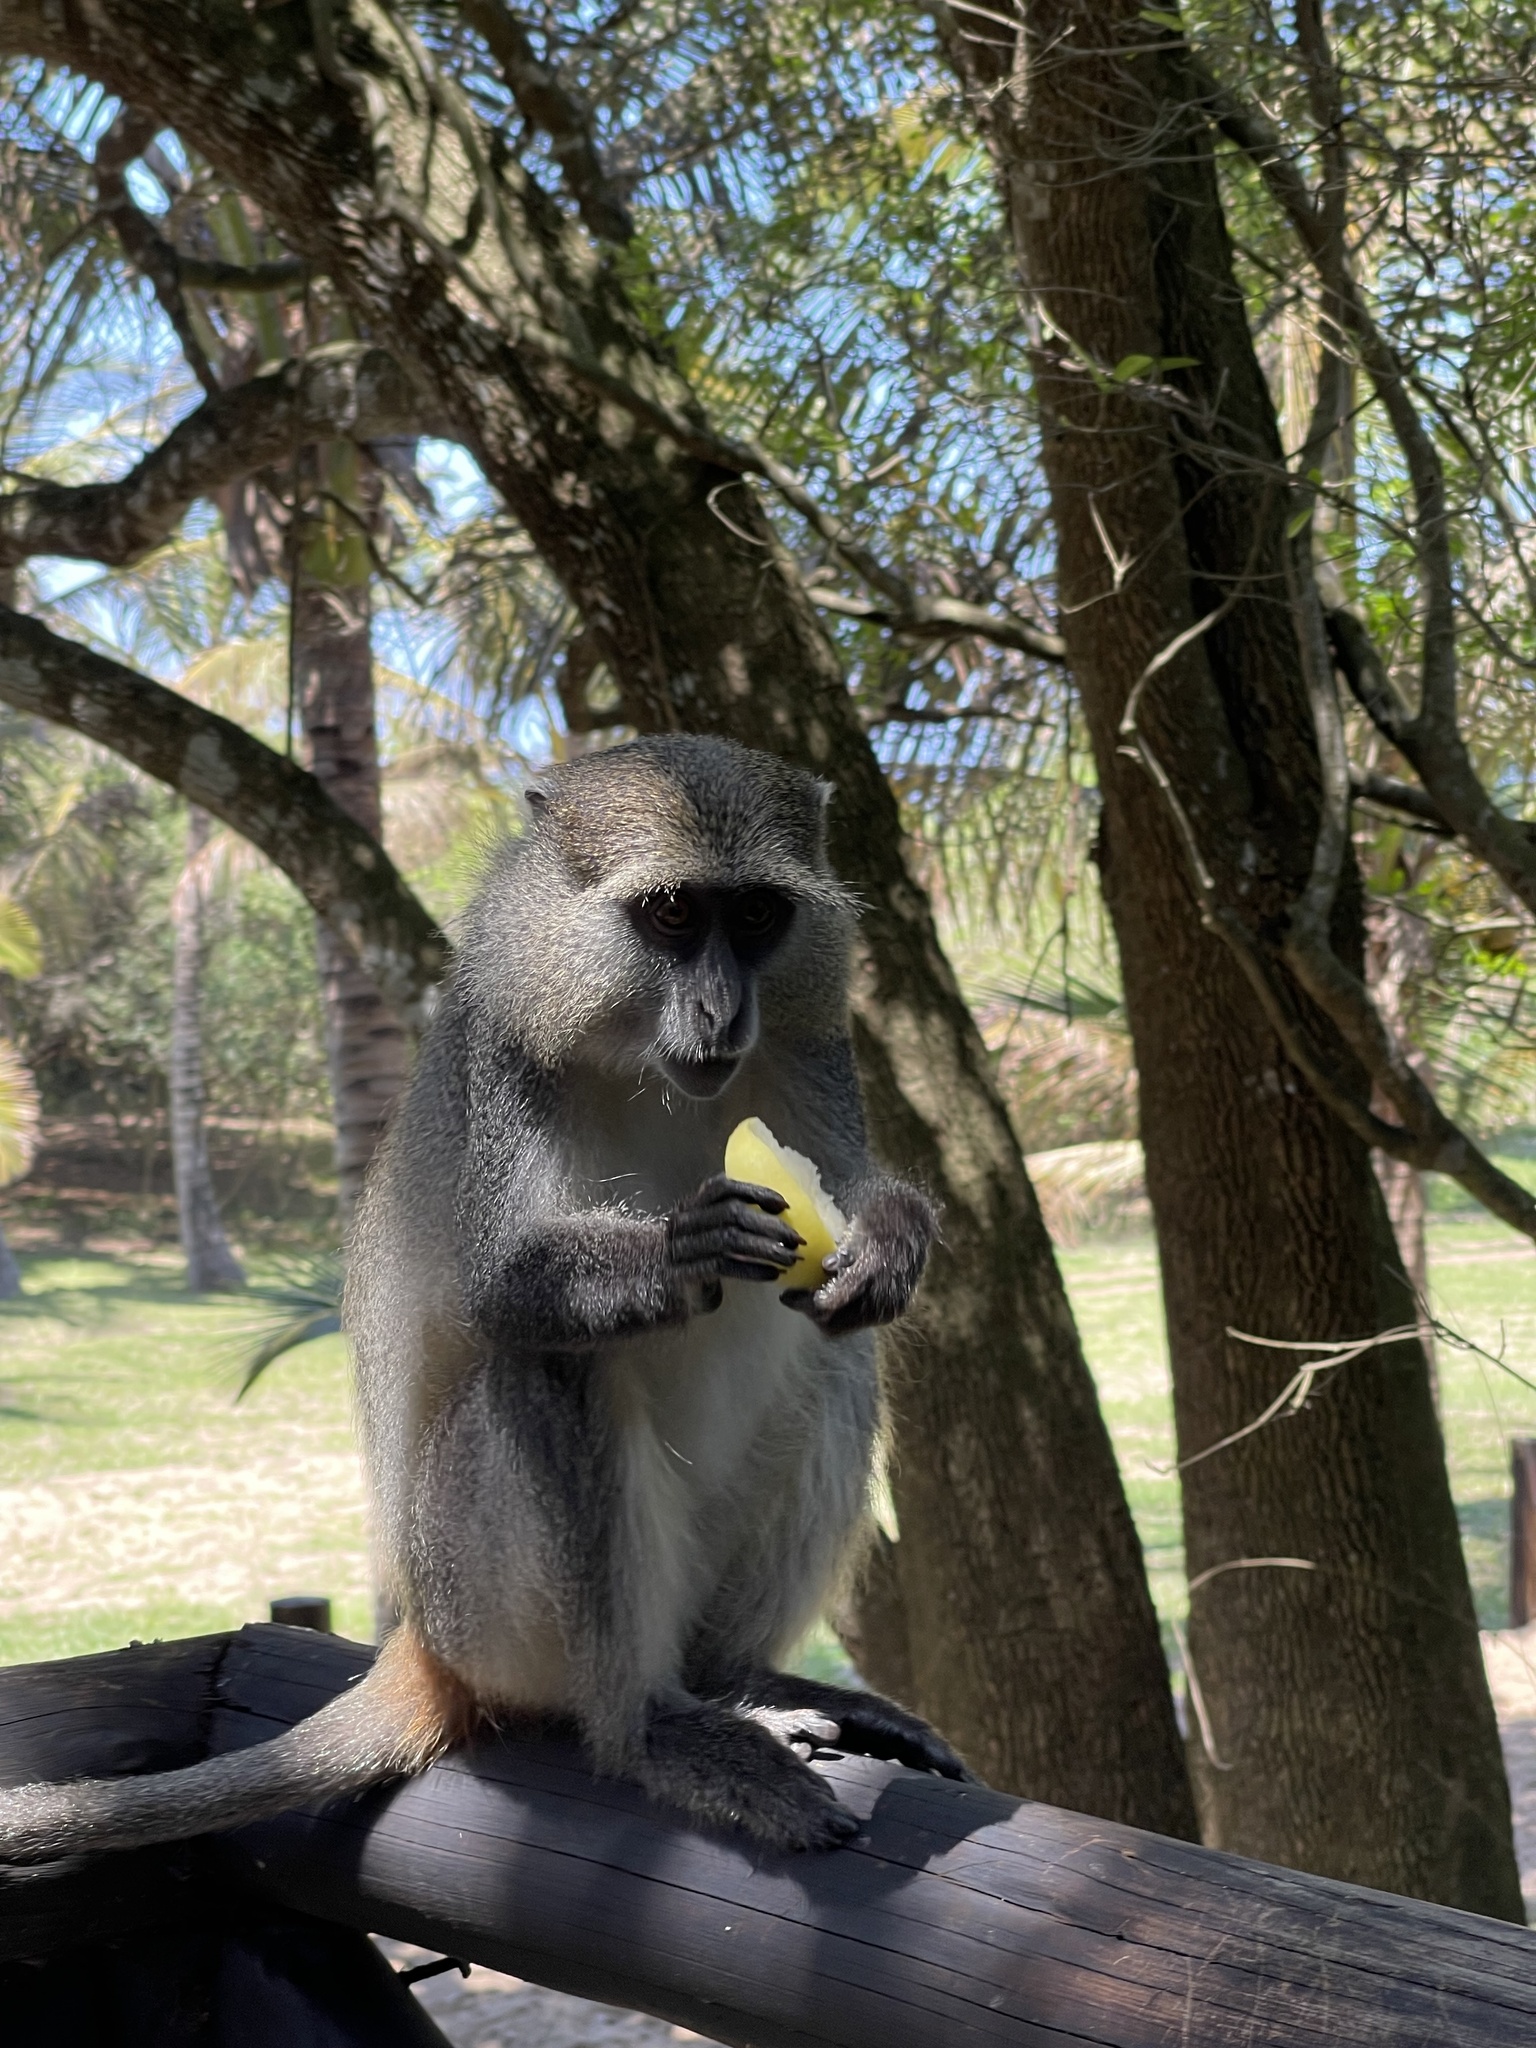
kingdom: Animalia
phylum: Chordata
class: Mammalia
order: Primates
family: Cercopithecidae
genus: Cercopithecus
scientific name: Cercopithecus mitis
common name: Blue monkey
